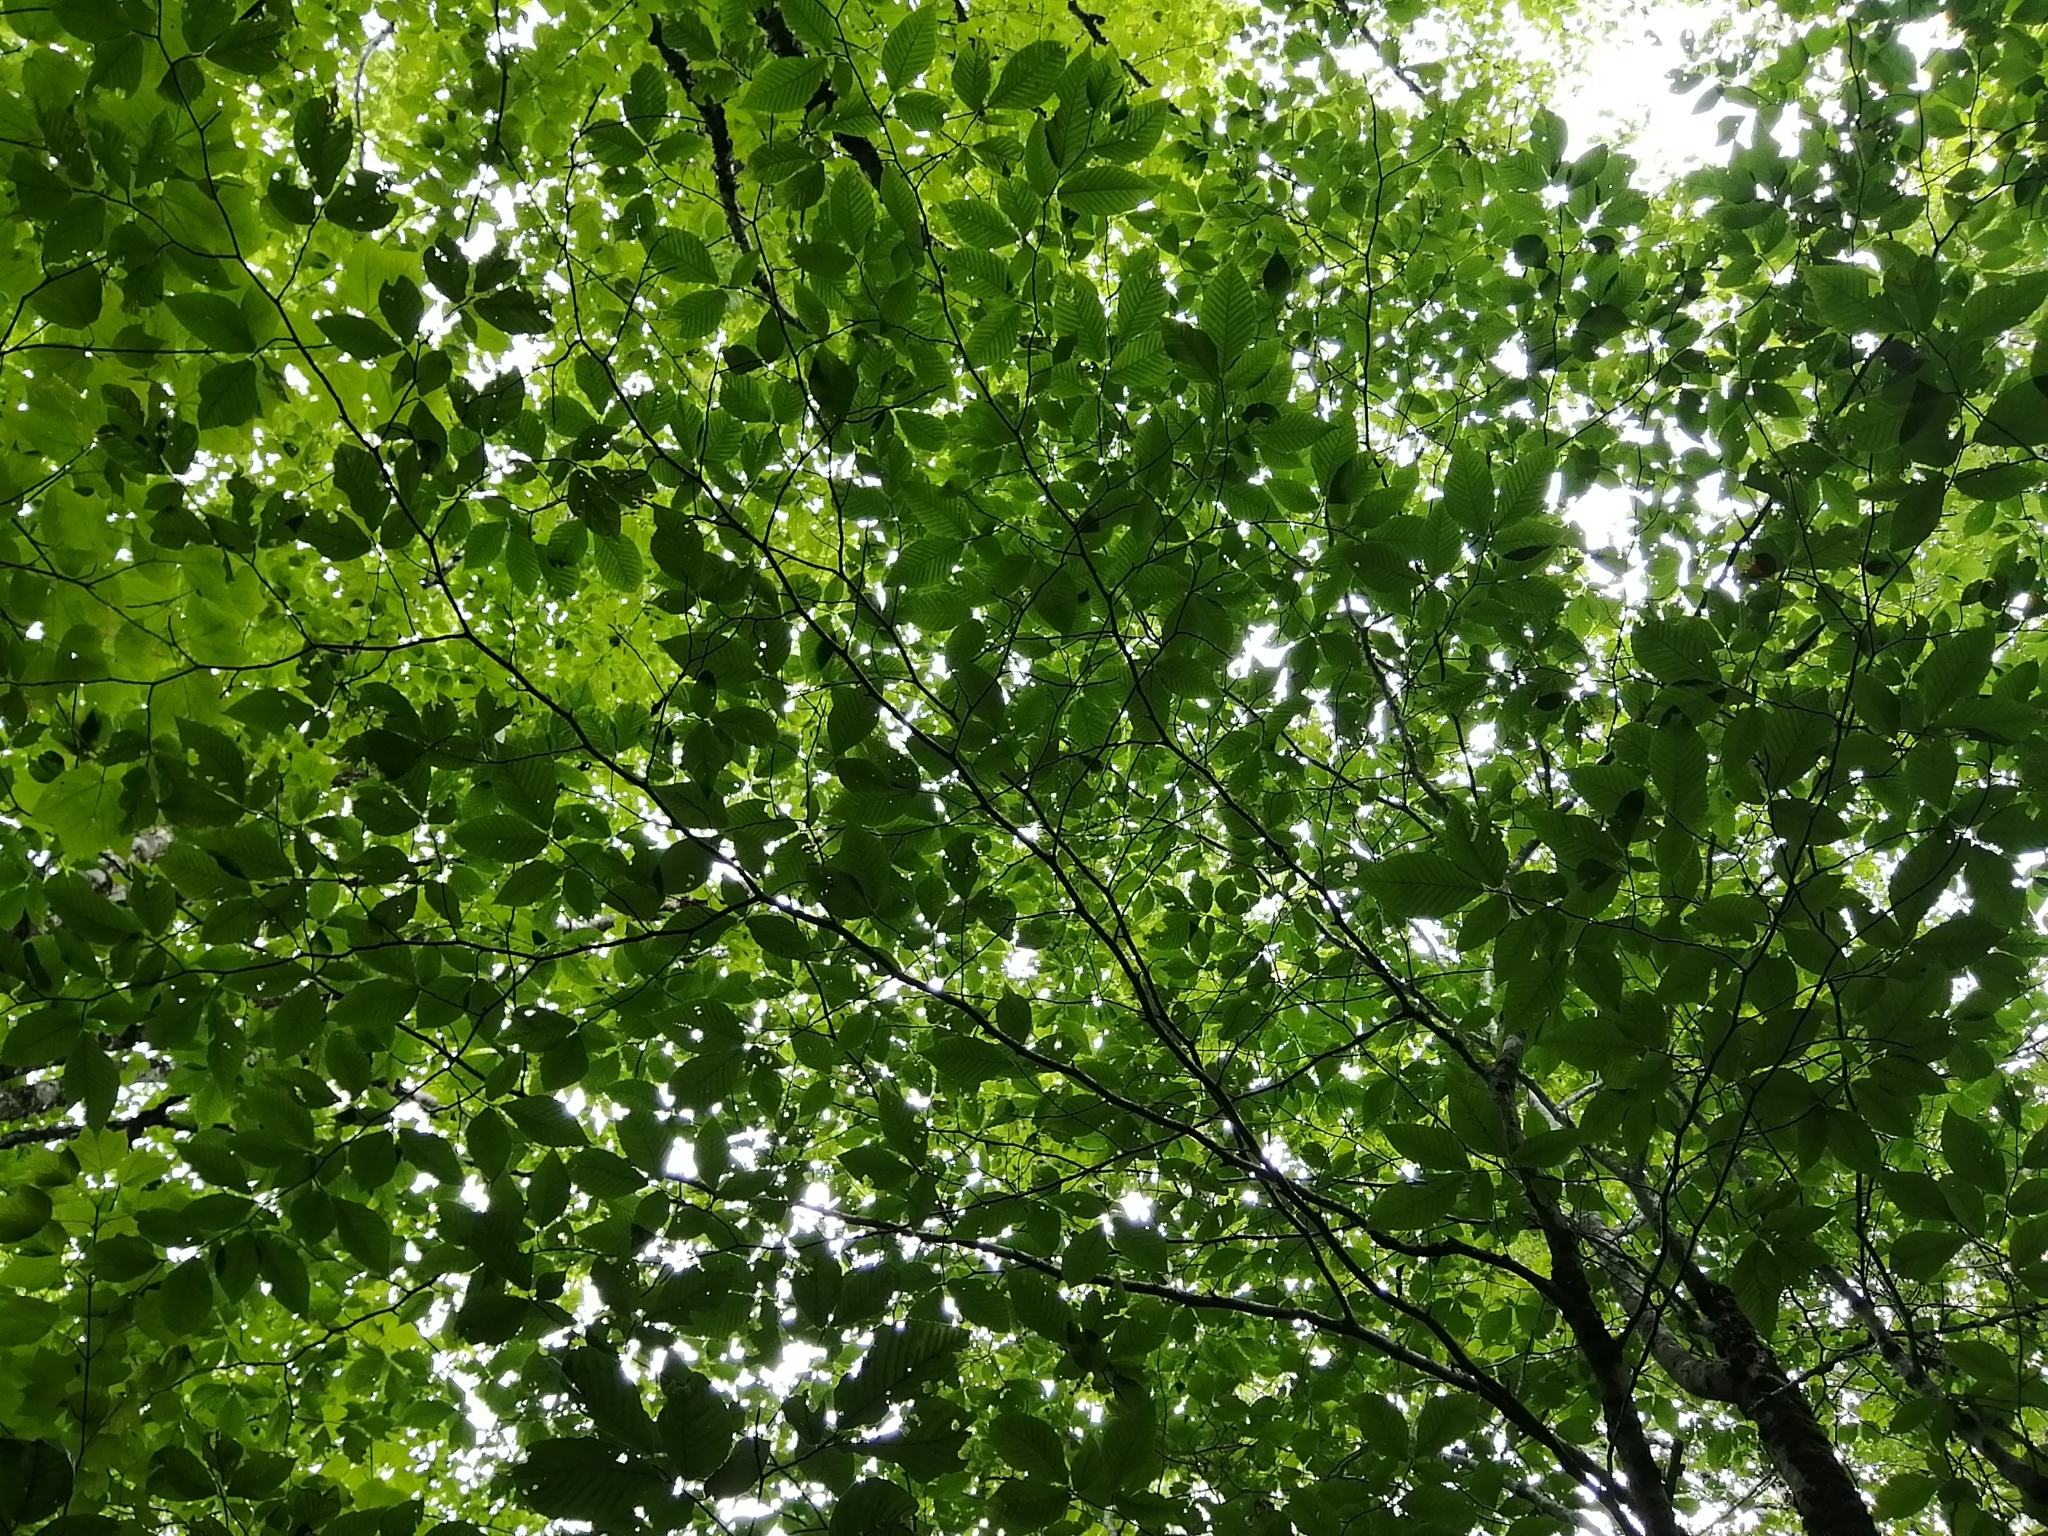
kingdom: Plantae
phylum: Tracheophyta
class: Magnoliopsida
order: Fagales
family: Fagaceae
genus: Fagus
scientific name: Fagus grandifolia
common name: American beech
